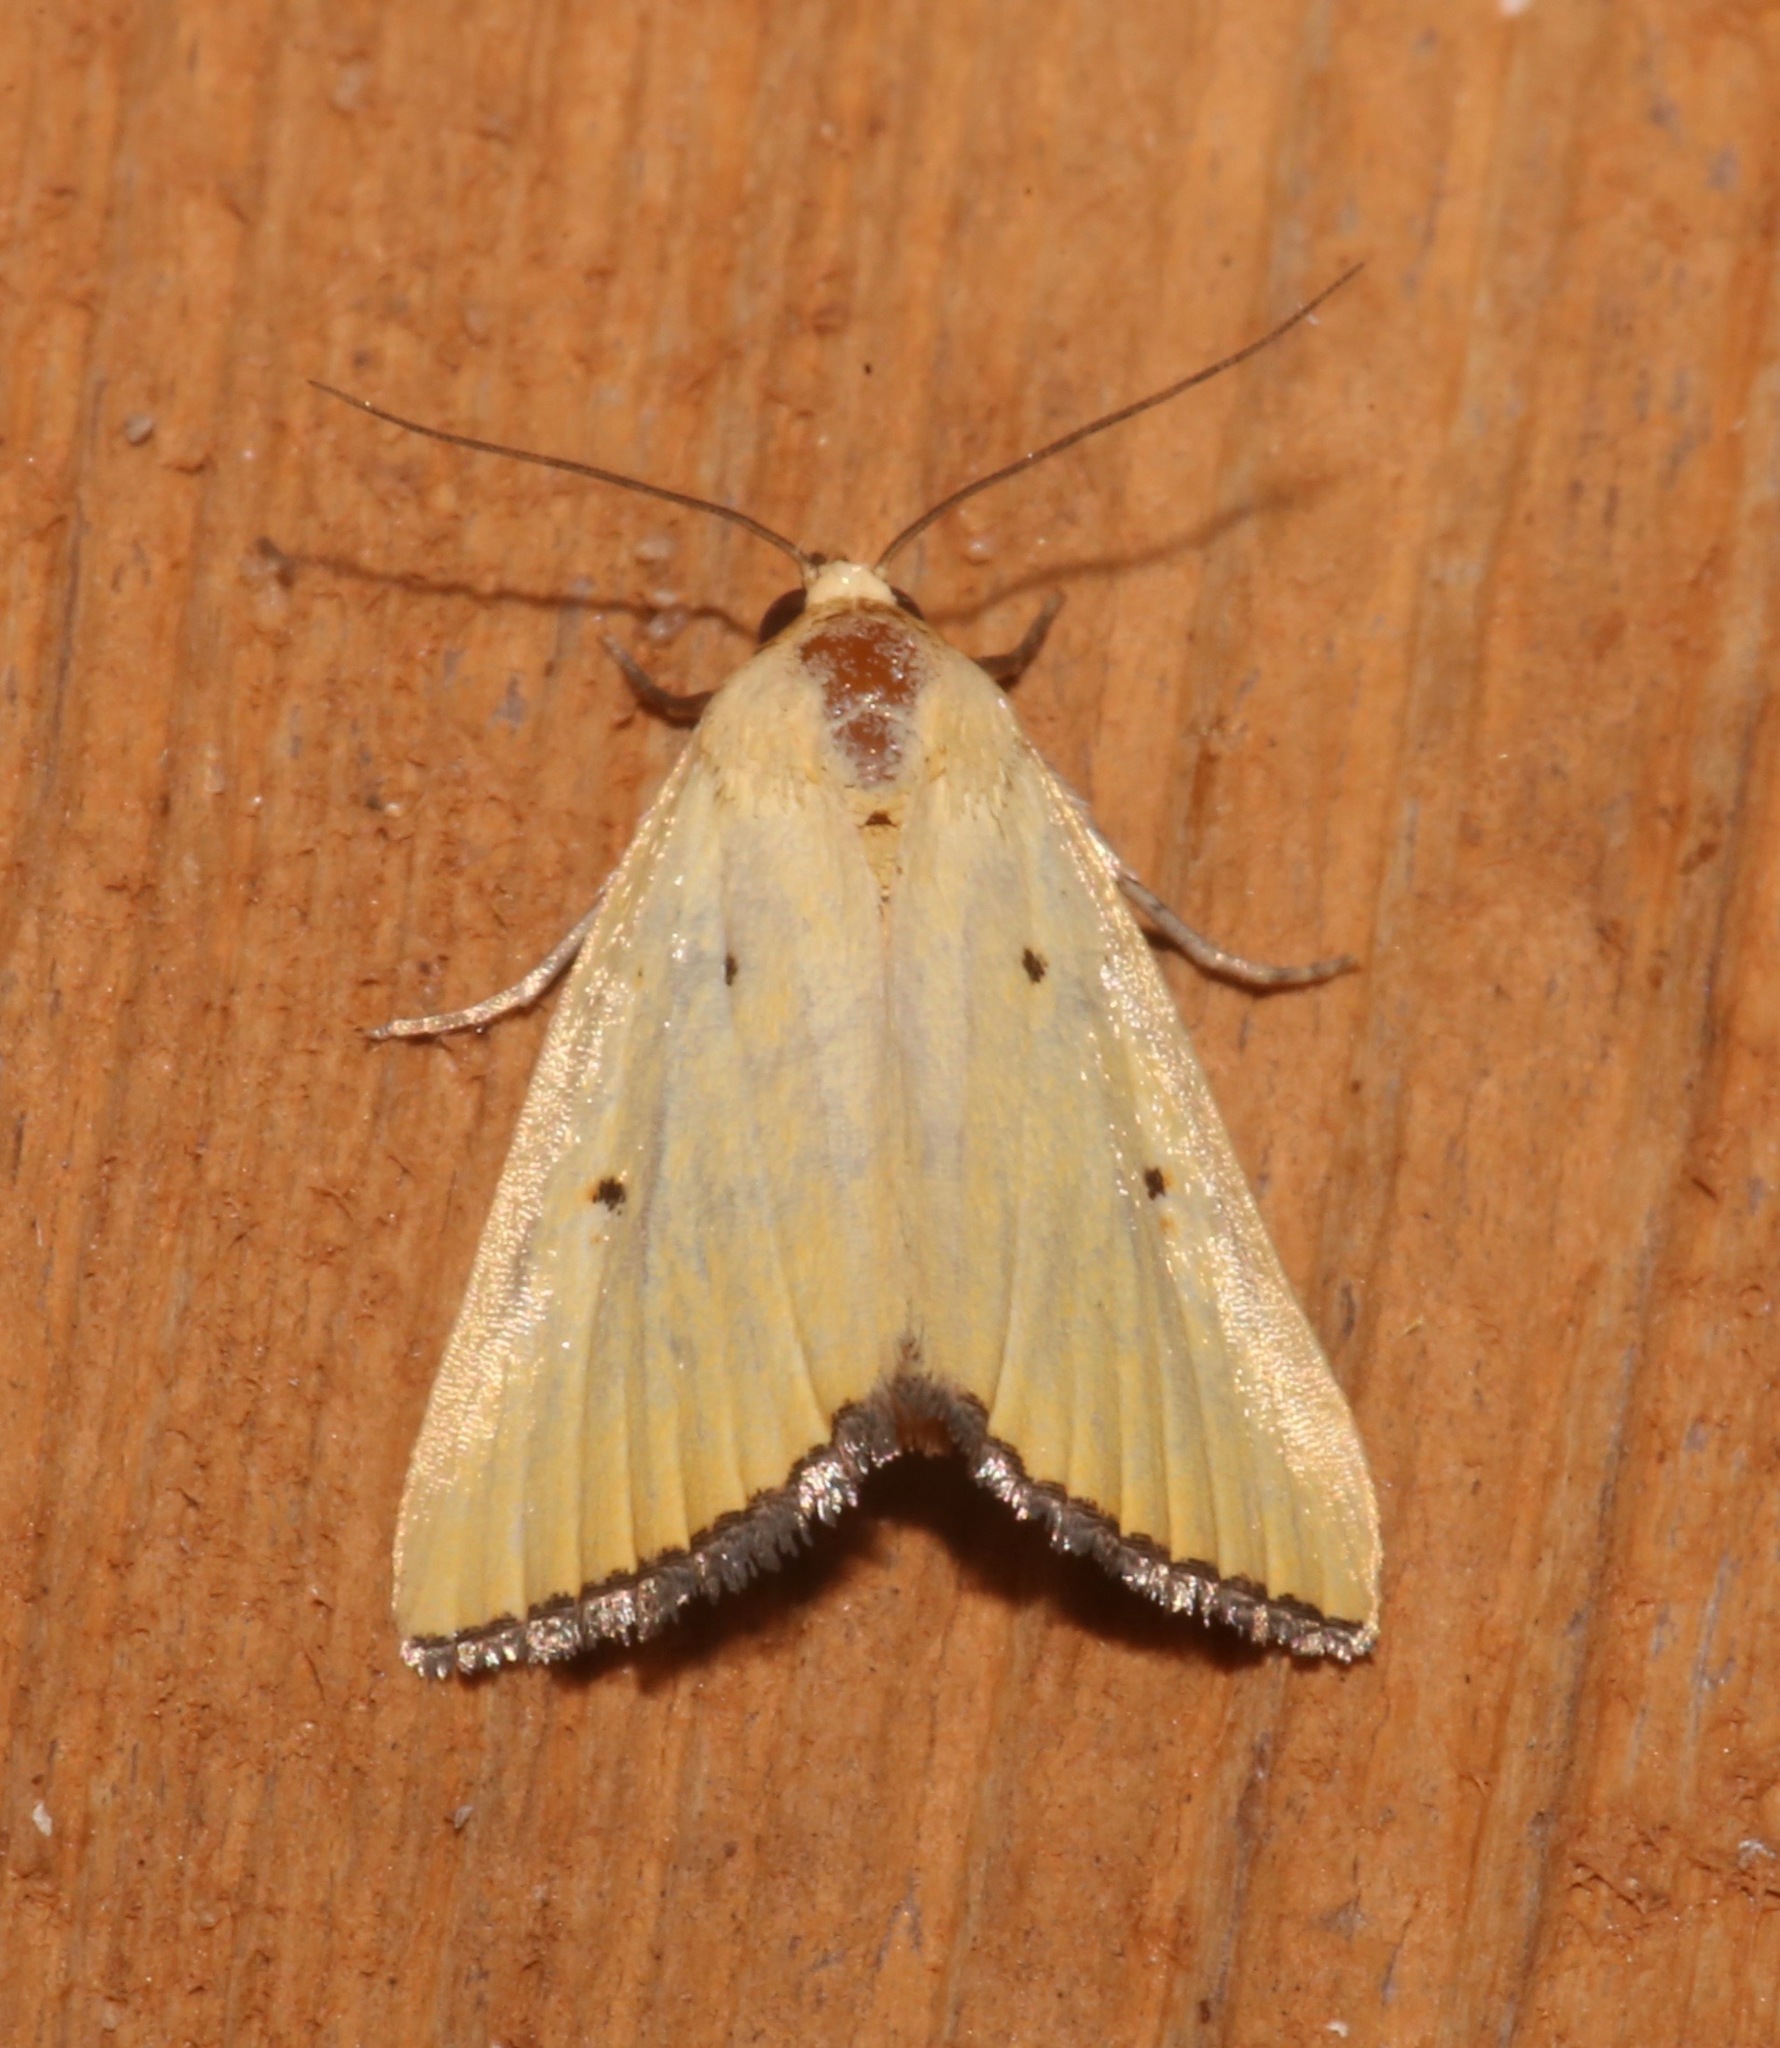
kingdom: Animalia
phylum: Arthropoda
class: Insecta
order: Lepidoptera
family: Noctuidae
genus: Marimatha
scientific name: Marimatha nigrofimbria
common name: Black-bordered lemon moth
